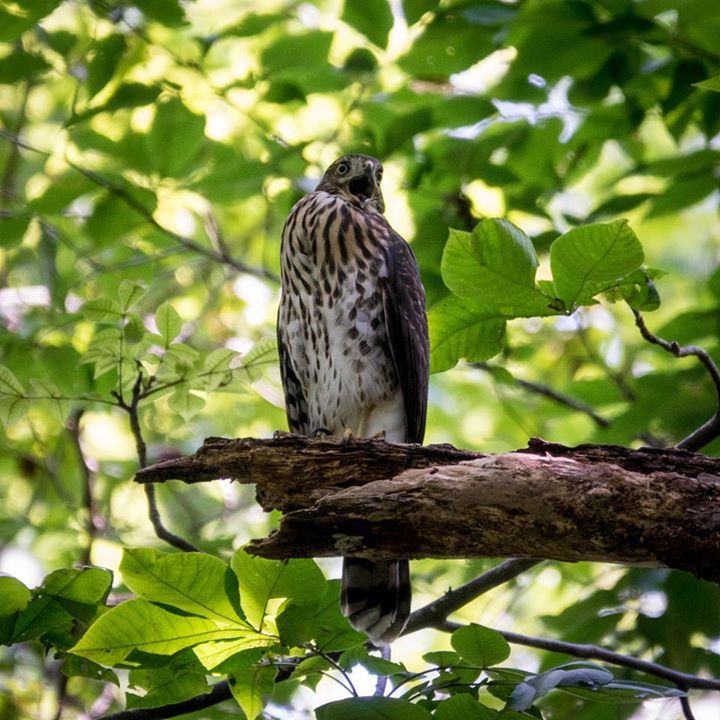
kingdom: Animalia
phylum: Chordata
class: Aves
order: Accipitriformes
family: Accipitridae
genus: Accipiter
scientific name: Accipiter cooperii
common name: Cooper's hawk
